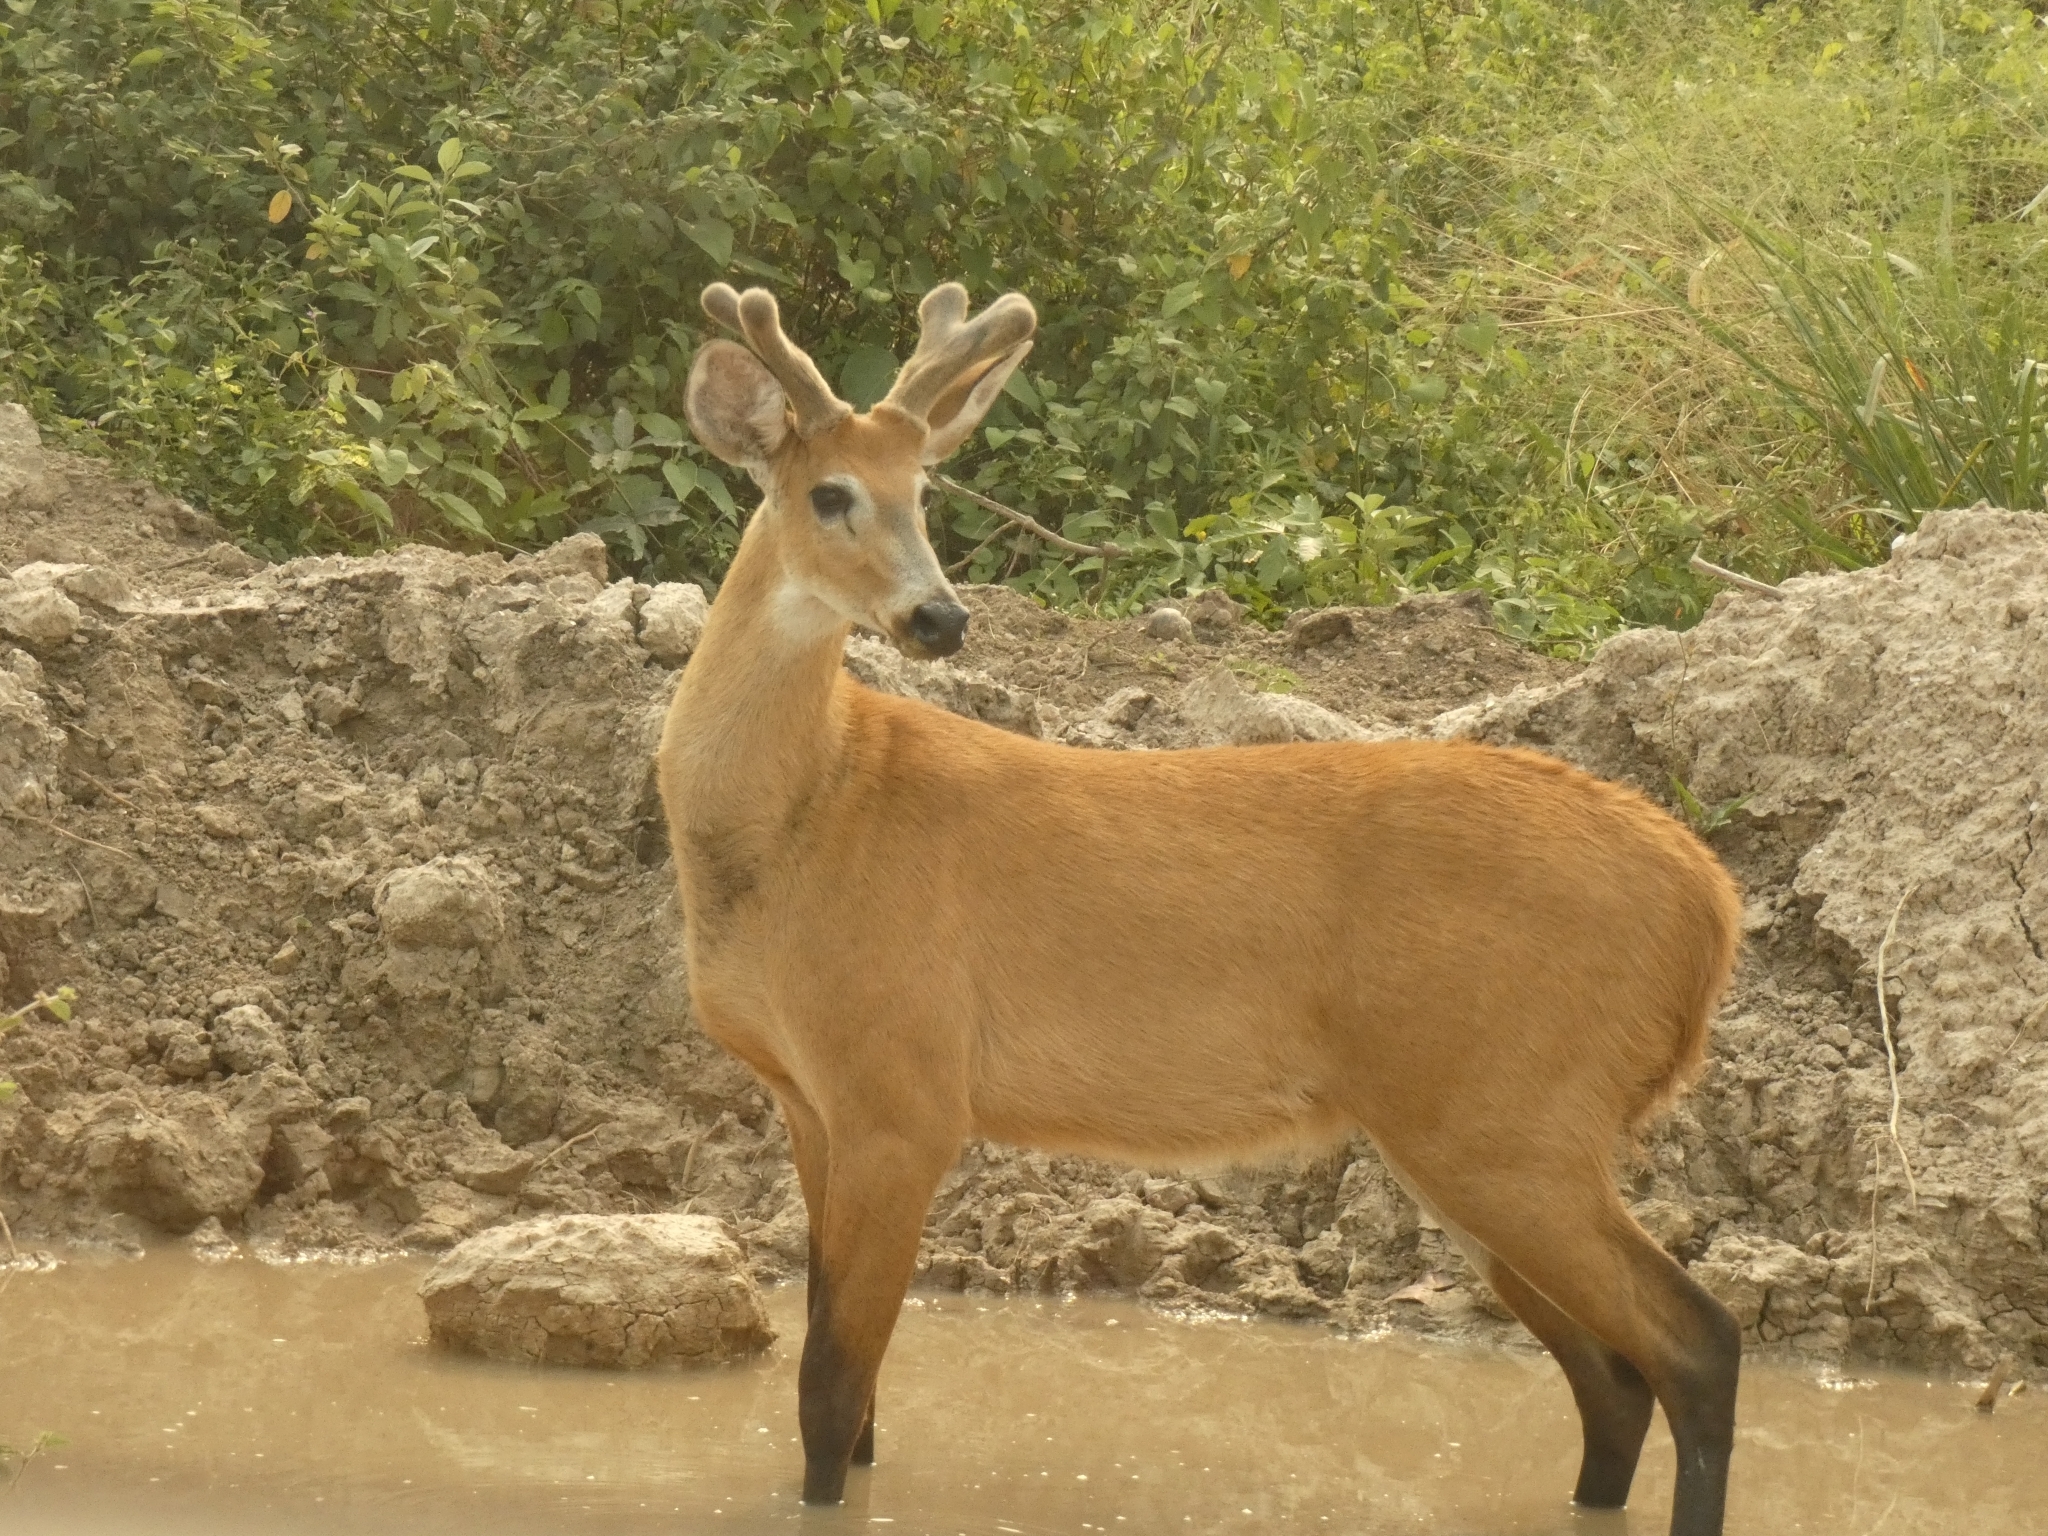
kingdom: Animalia
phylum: Chordata
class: Mammalia
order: Artiodactyla
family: Cervidae
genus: Blastocerus
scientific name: Blastocerus dichotomus
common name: Marsh deer
